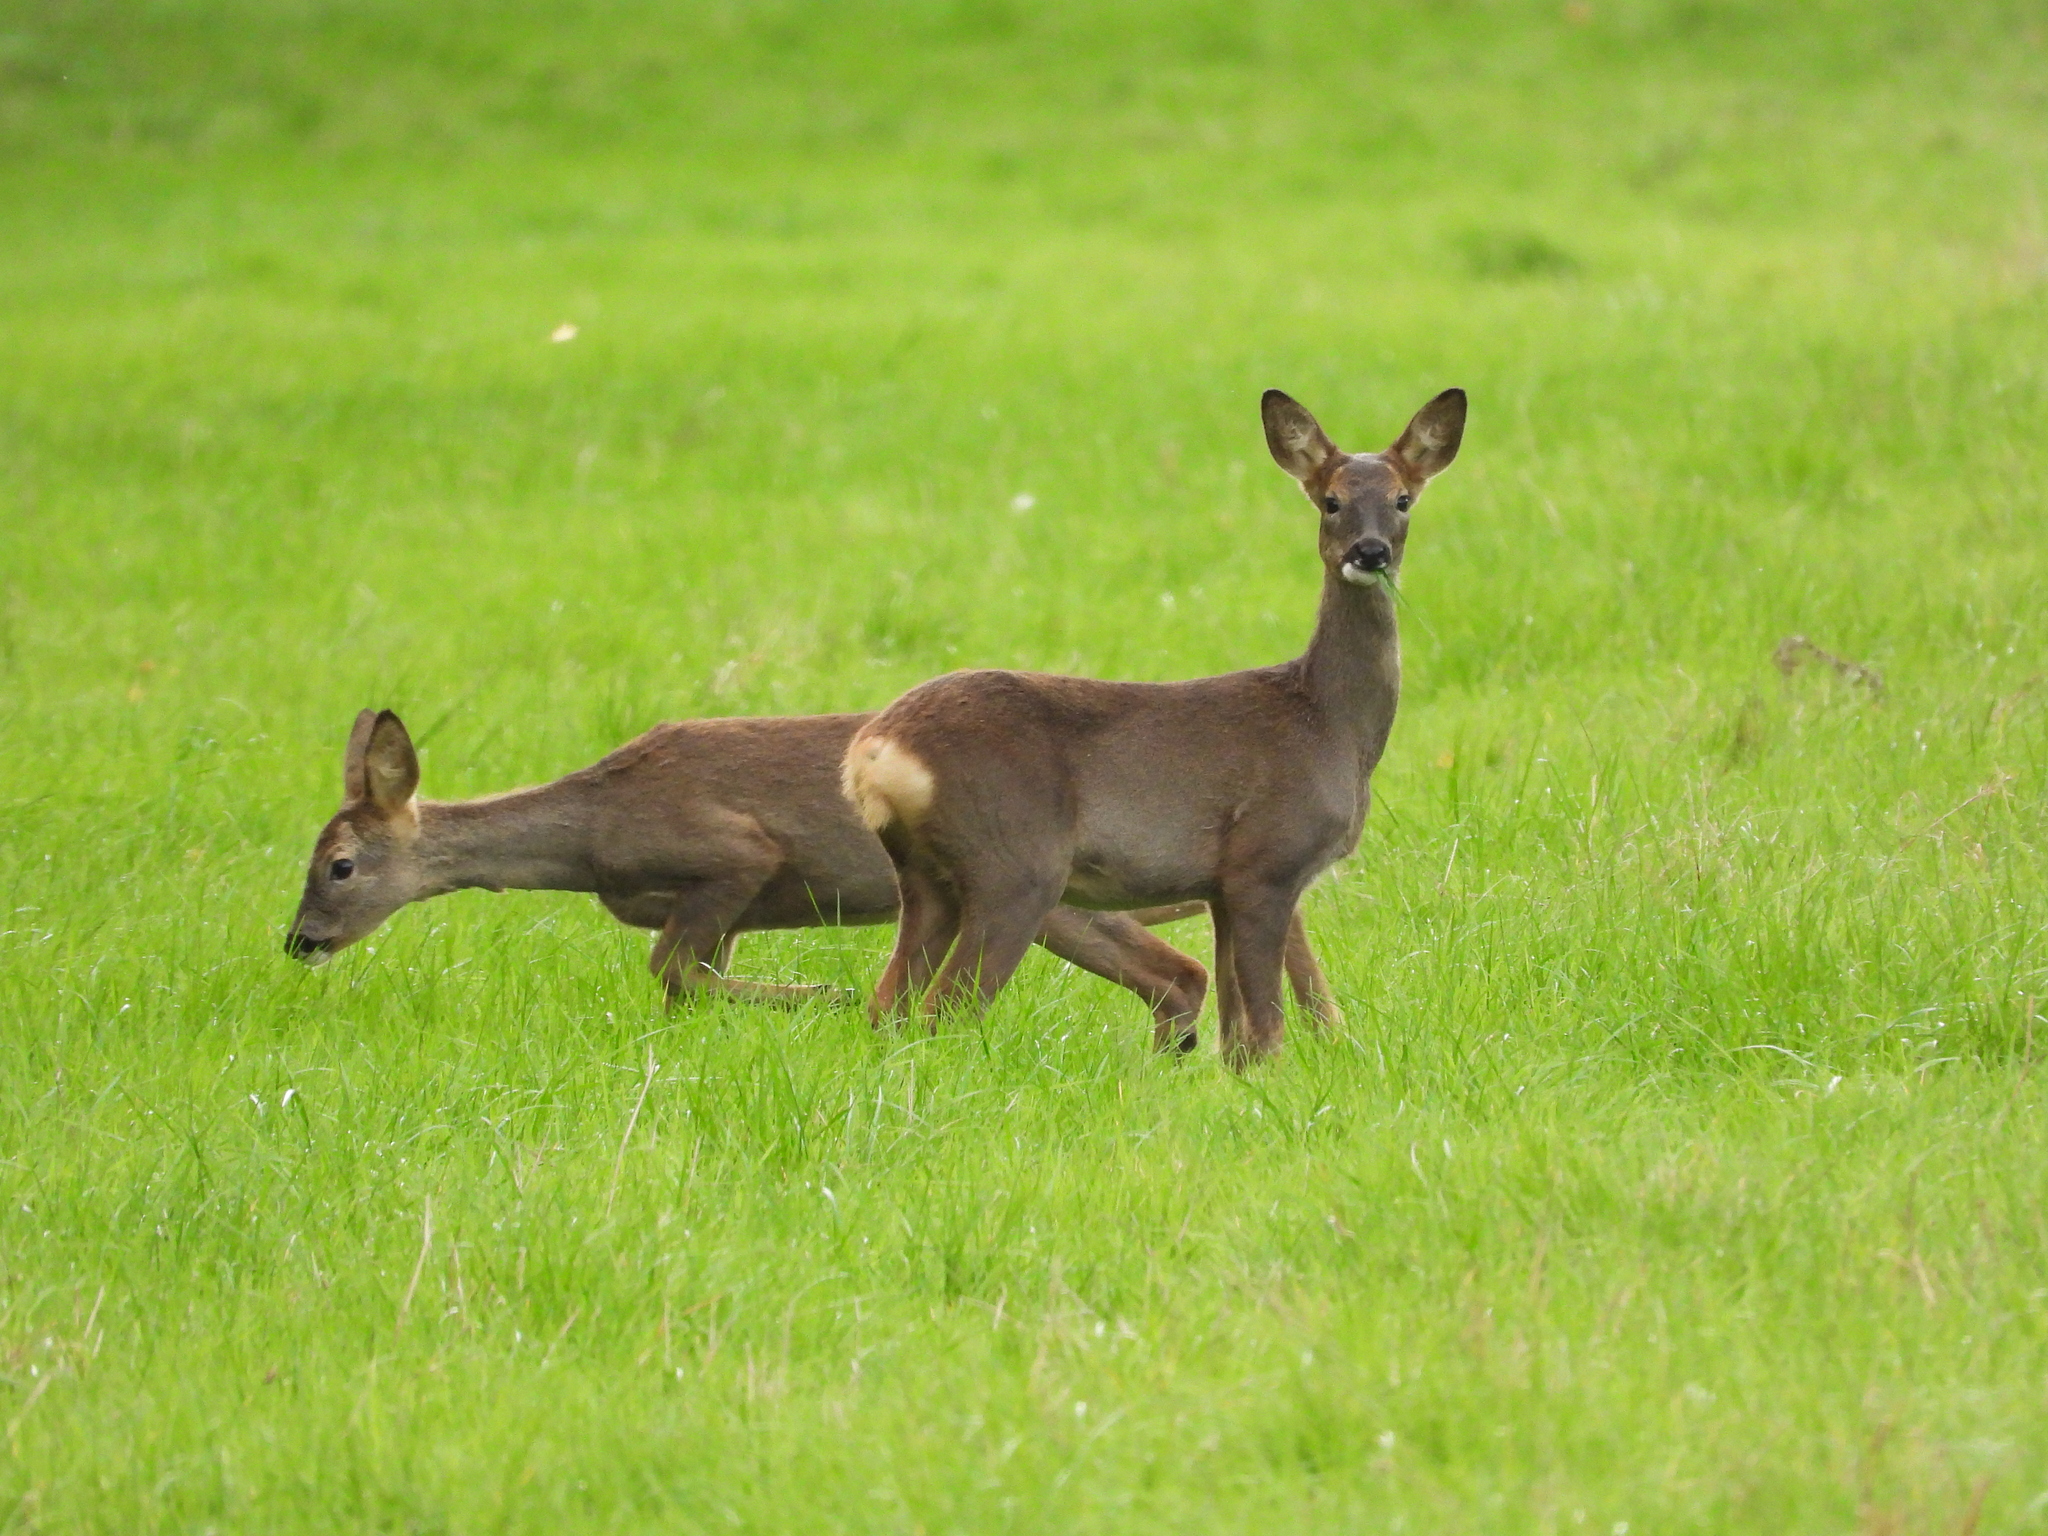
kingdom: Animalia
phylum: Chordata
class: Mammalia
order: Artiodactyla
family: Cervidae
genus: Capreolus
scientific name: Capreolus capreolus
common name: Western roe deer
